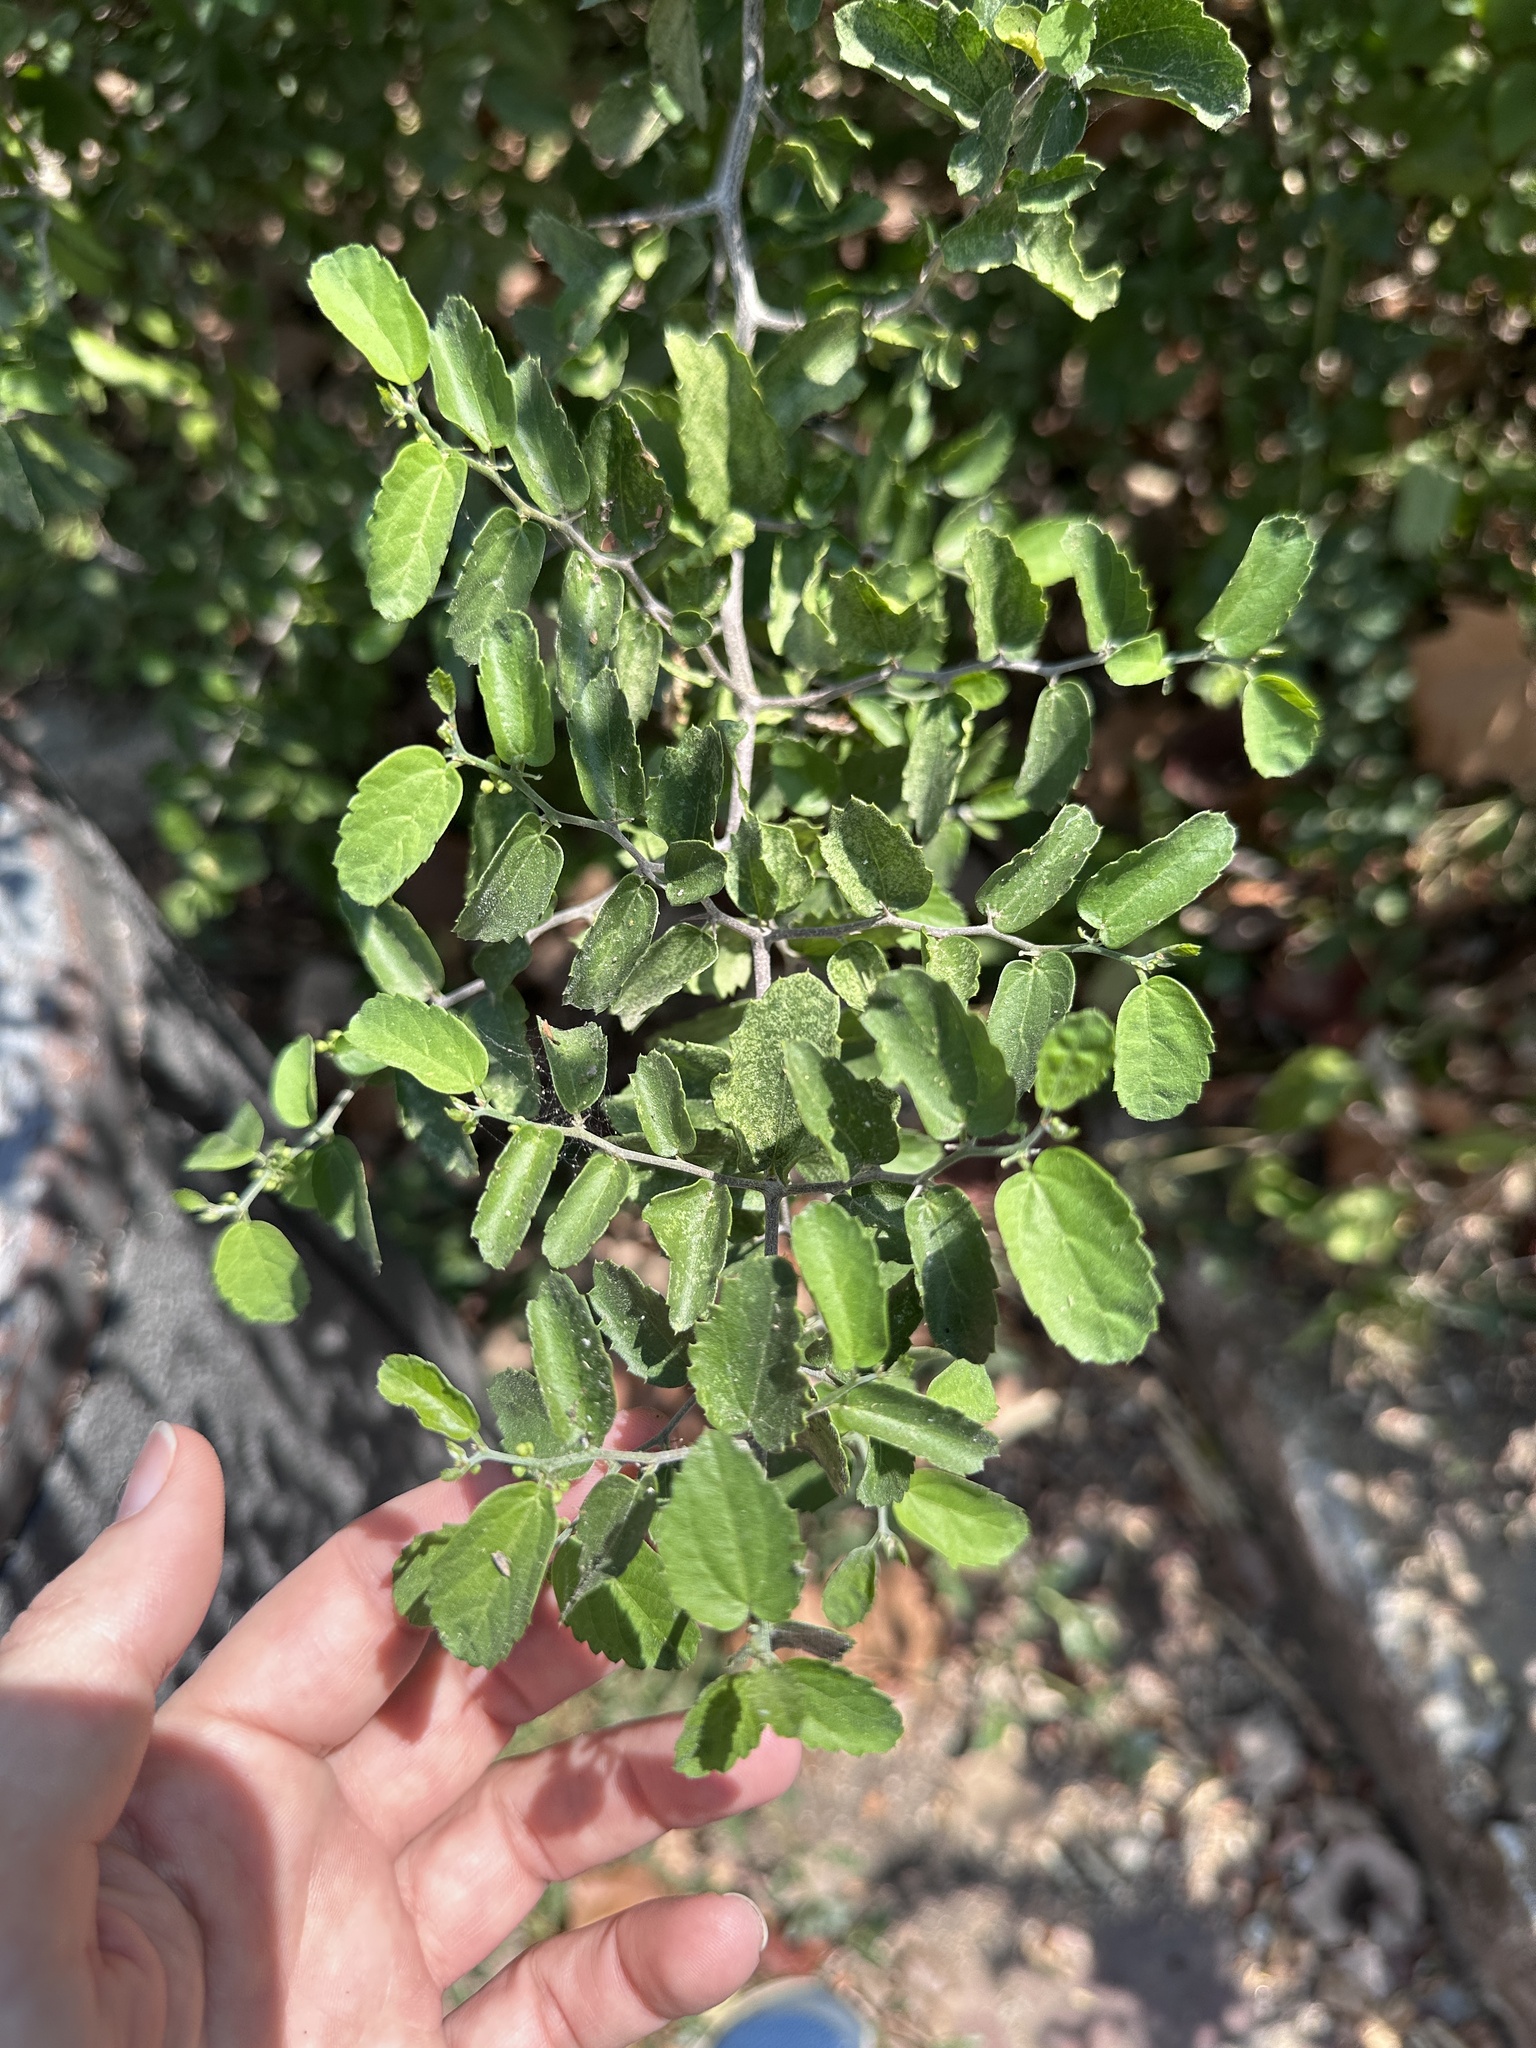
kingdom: Plantae
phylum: Tracheophyta
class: Magnoliopsida
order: Rosales
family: Cannabaceae
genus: Celtis
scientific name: Celtis pallida
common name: Desert hackberry
